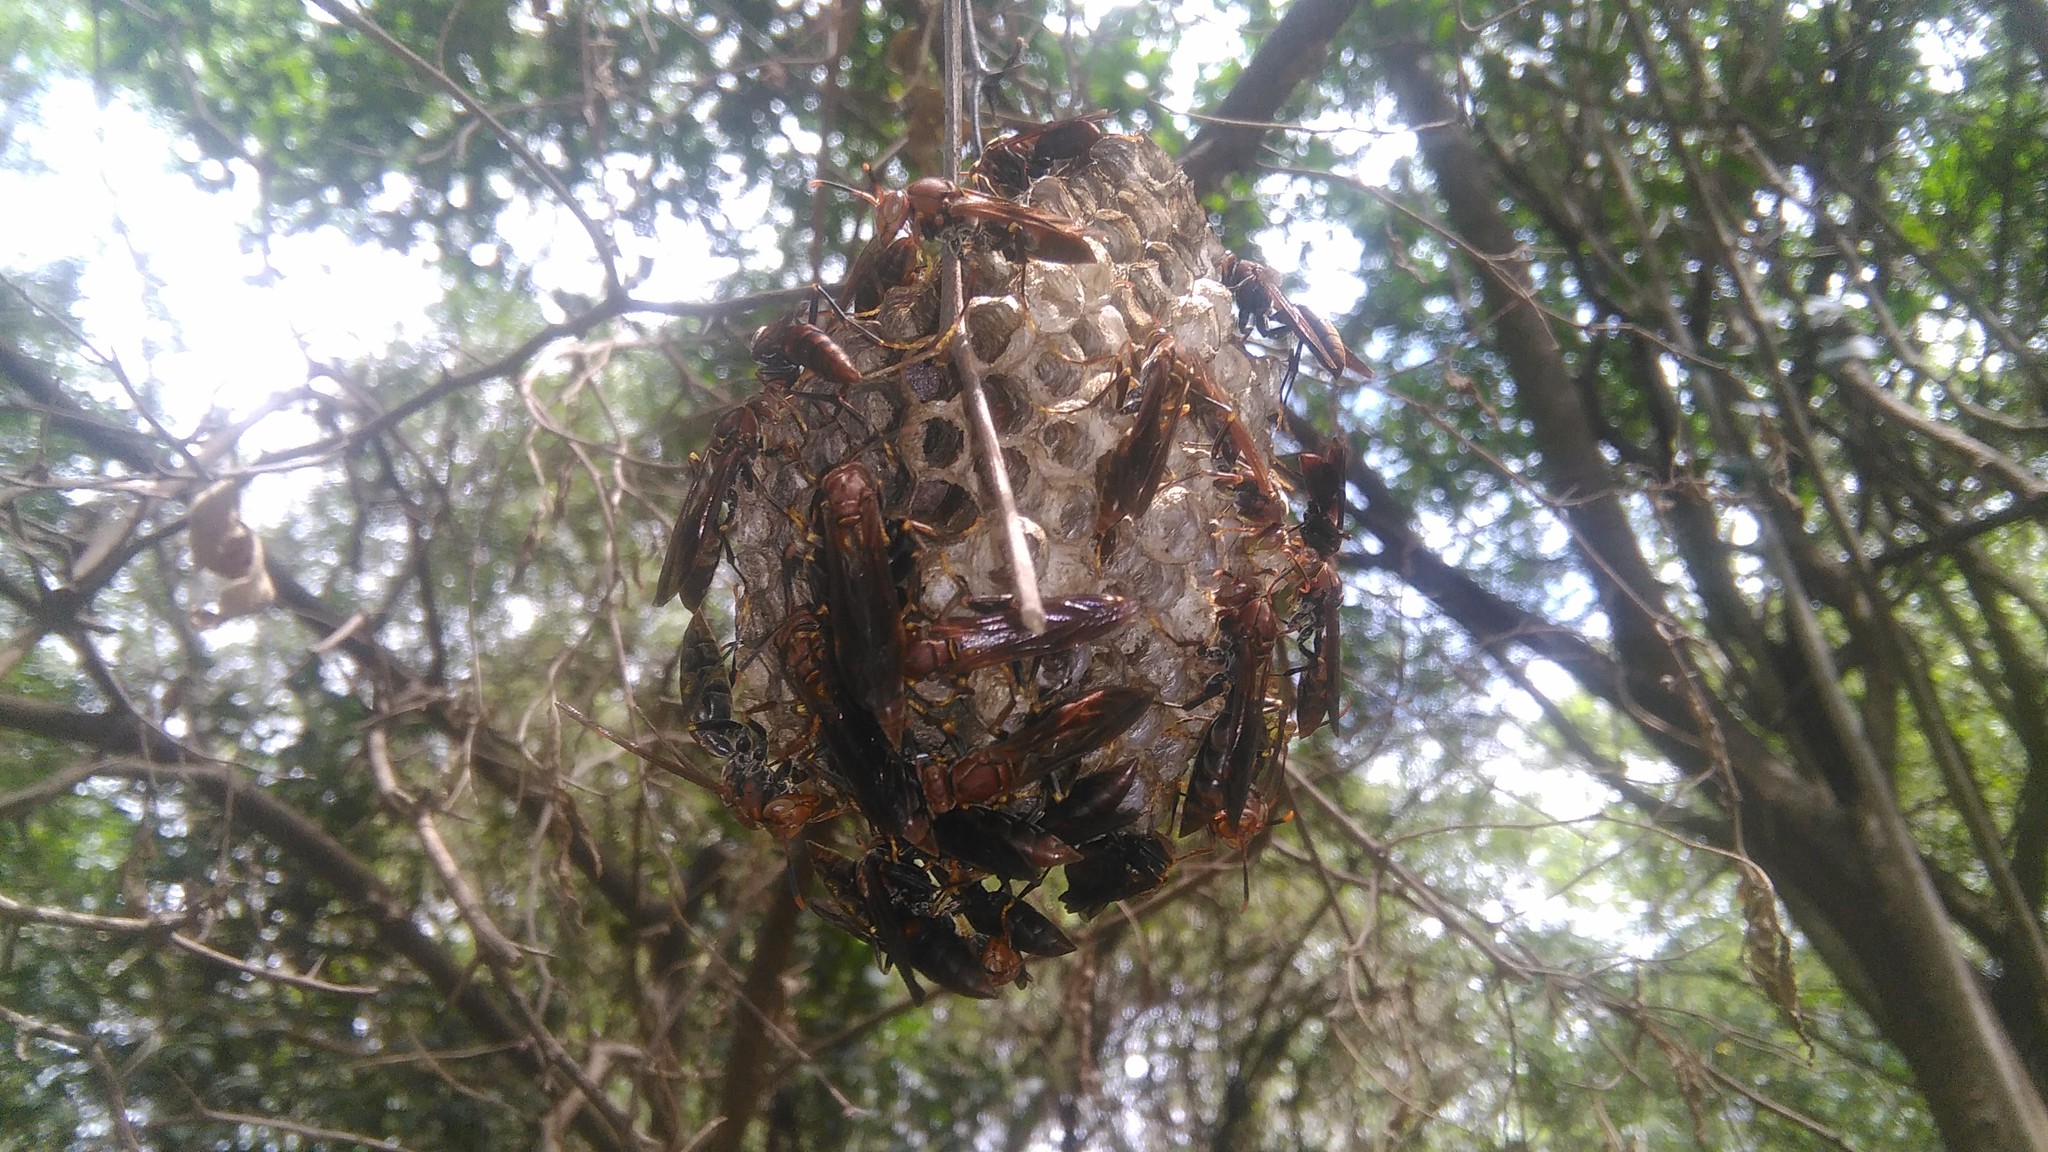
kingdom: Animalia
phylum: Arthropoda
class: Insecta
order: Hymenoptera
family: Pompilidae
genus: Aphanilopterus
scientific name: Aphanilopterus
